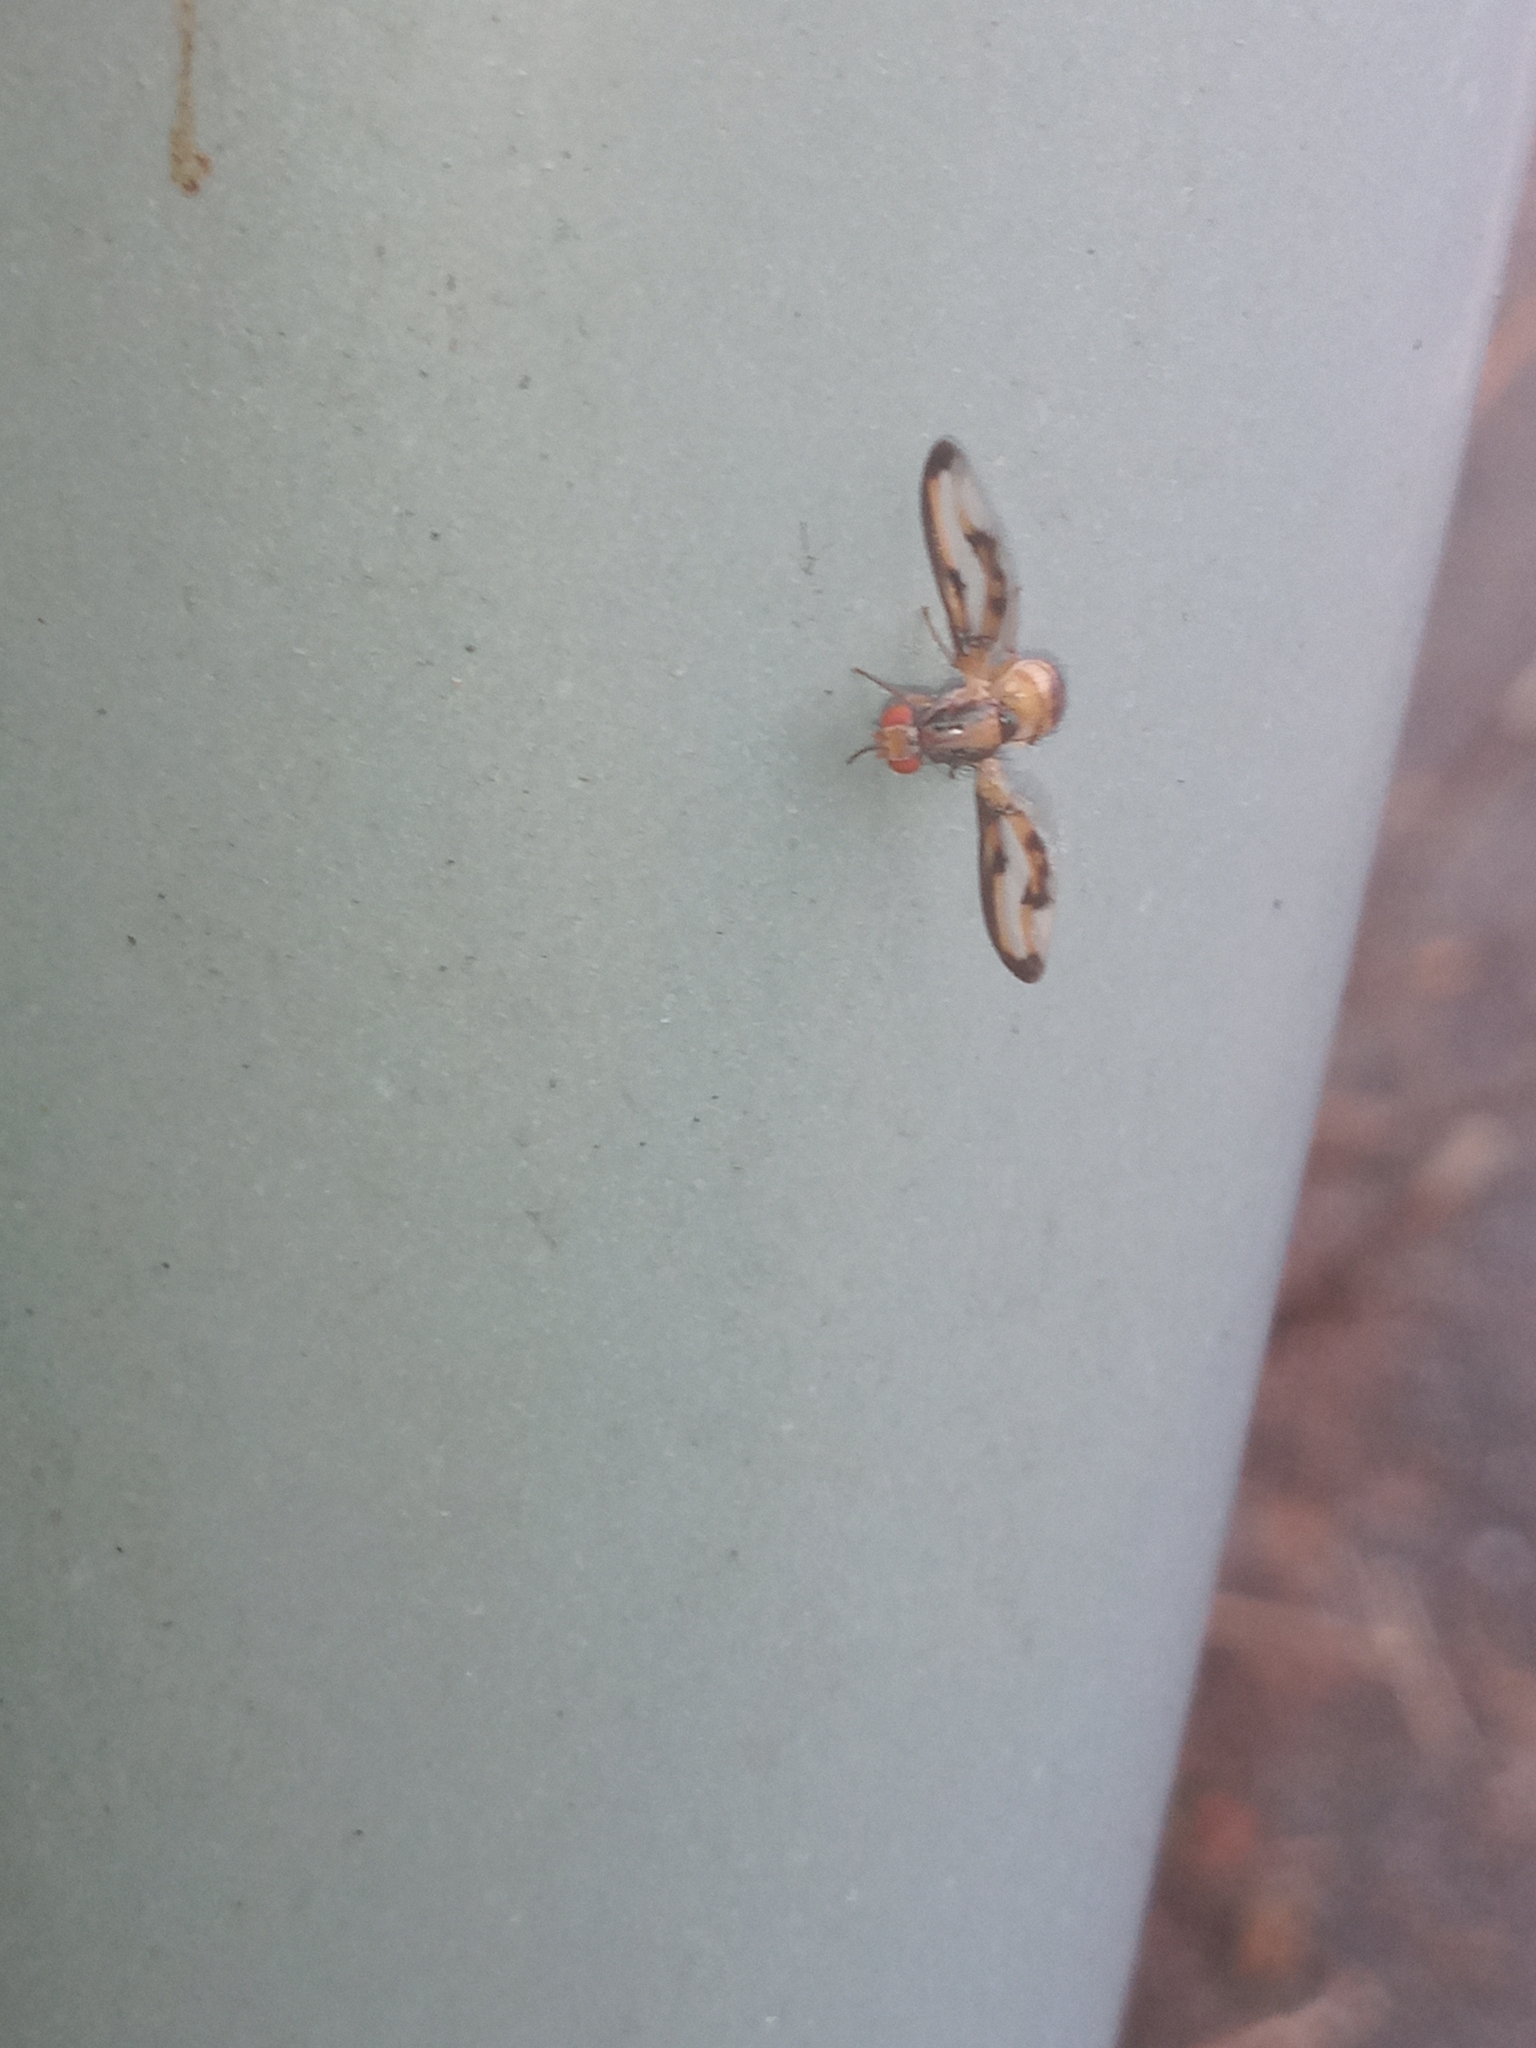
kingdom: Animalia
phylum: Arthropoda
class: Insecta
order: Diptera
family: Pallopteridae
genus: Toxonevra
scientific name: Toxonevra muliebris
